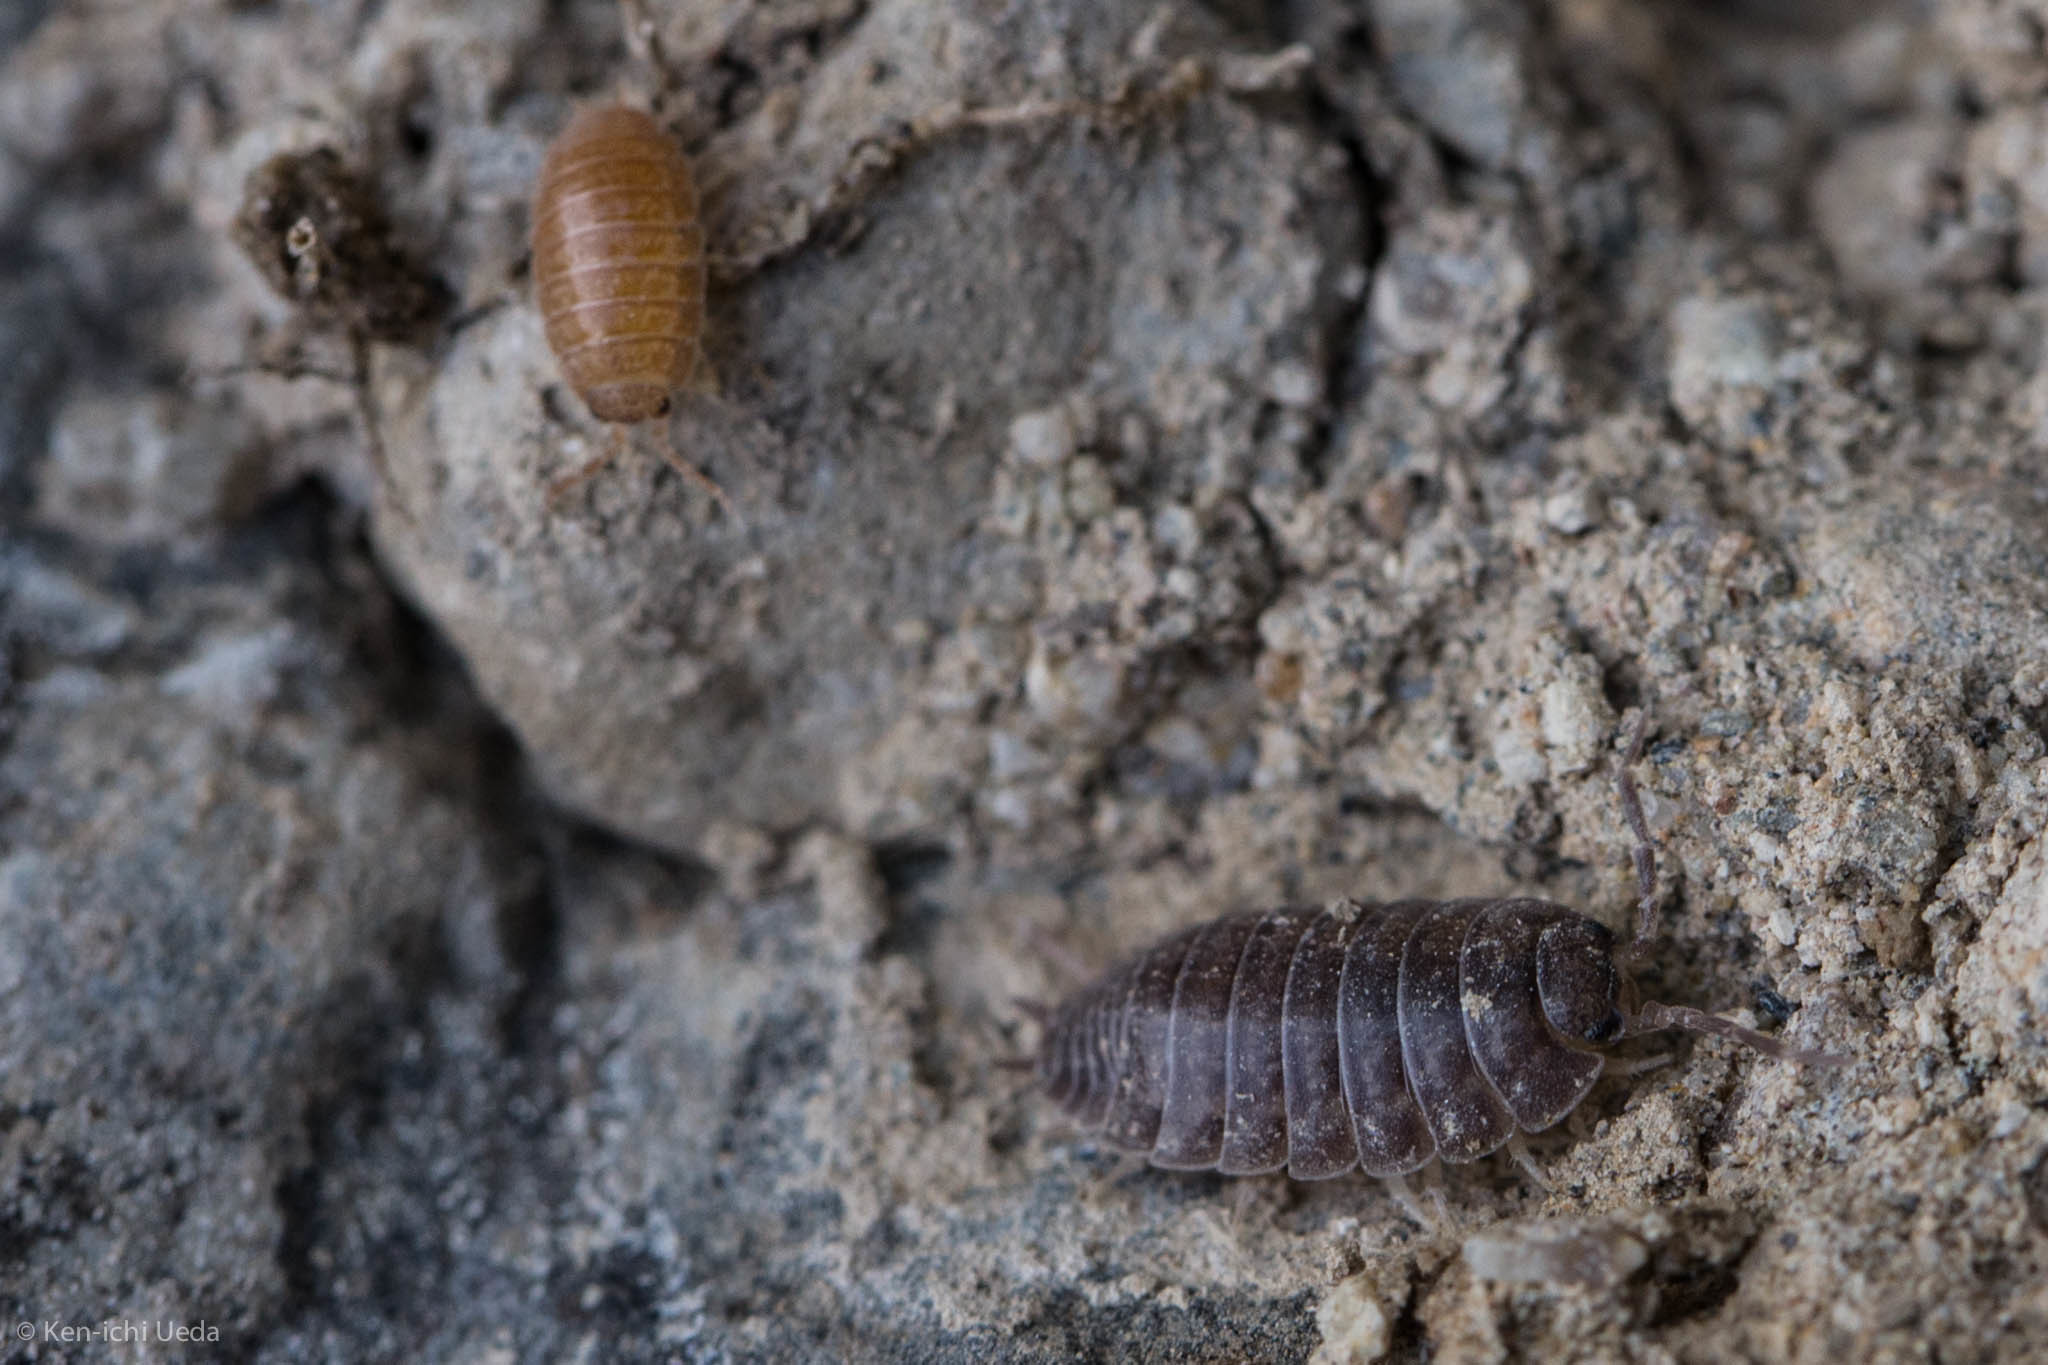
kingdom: Animalia
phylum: Arthropoda
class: Malacostraca
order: Isopoda
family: Porcellionidae
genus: Porcellio
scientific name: Porcellio laevis
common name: Swift woodlouse
